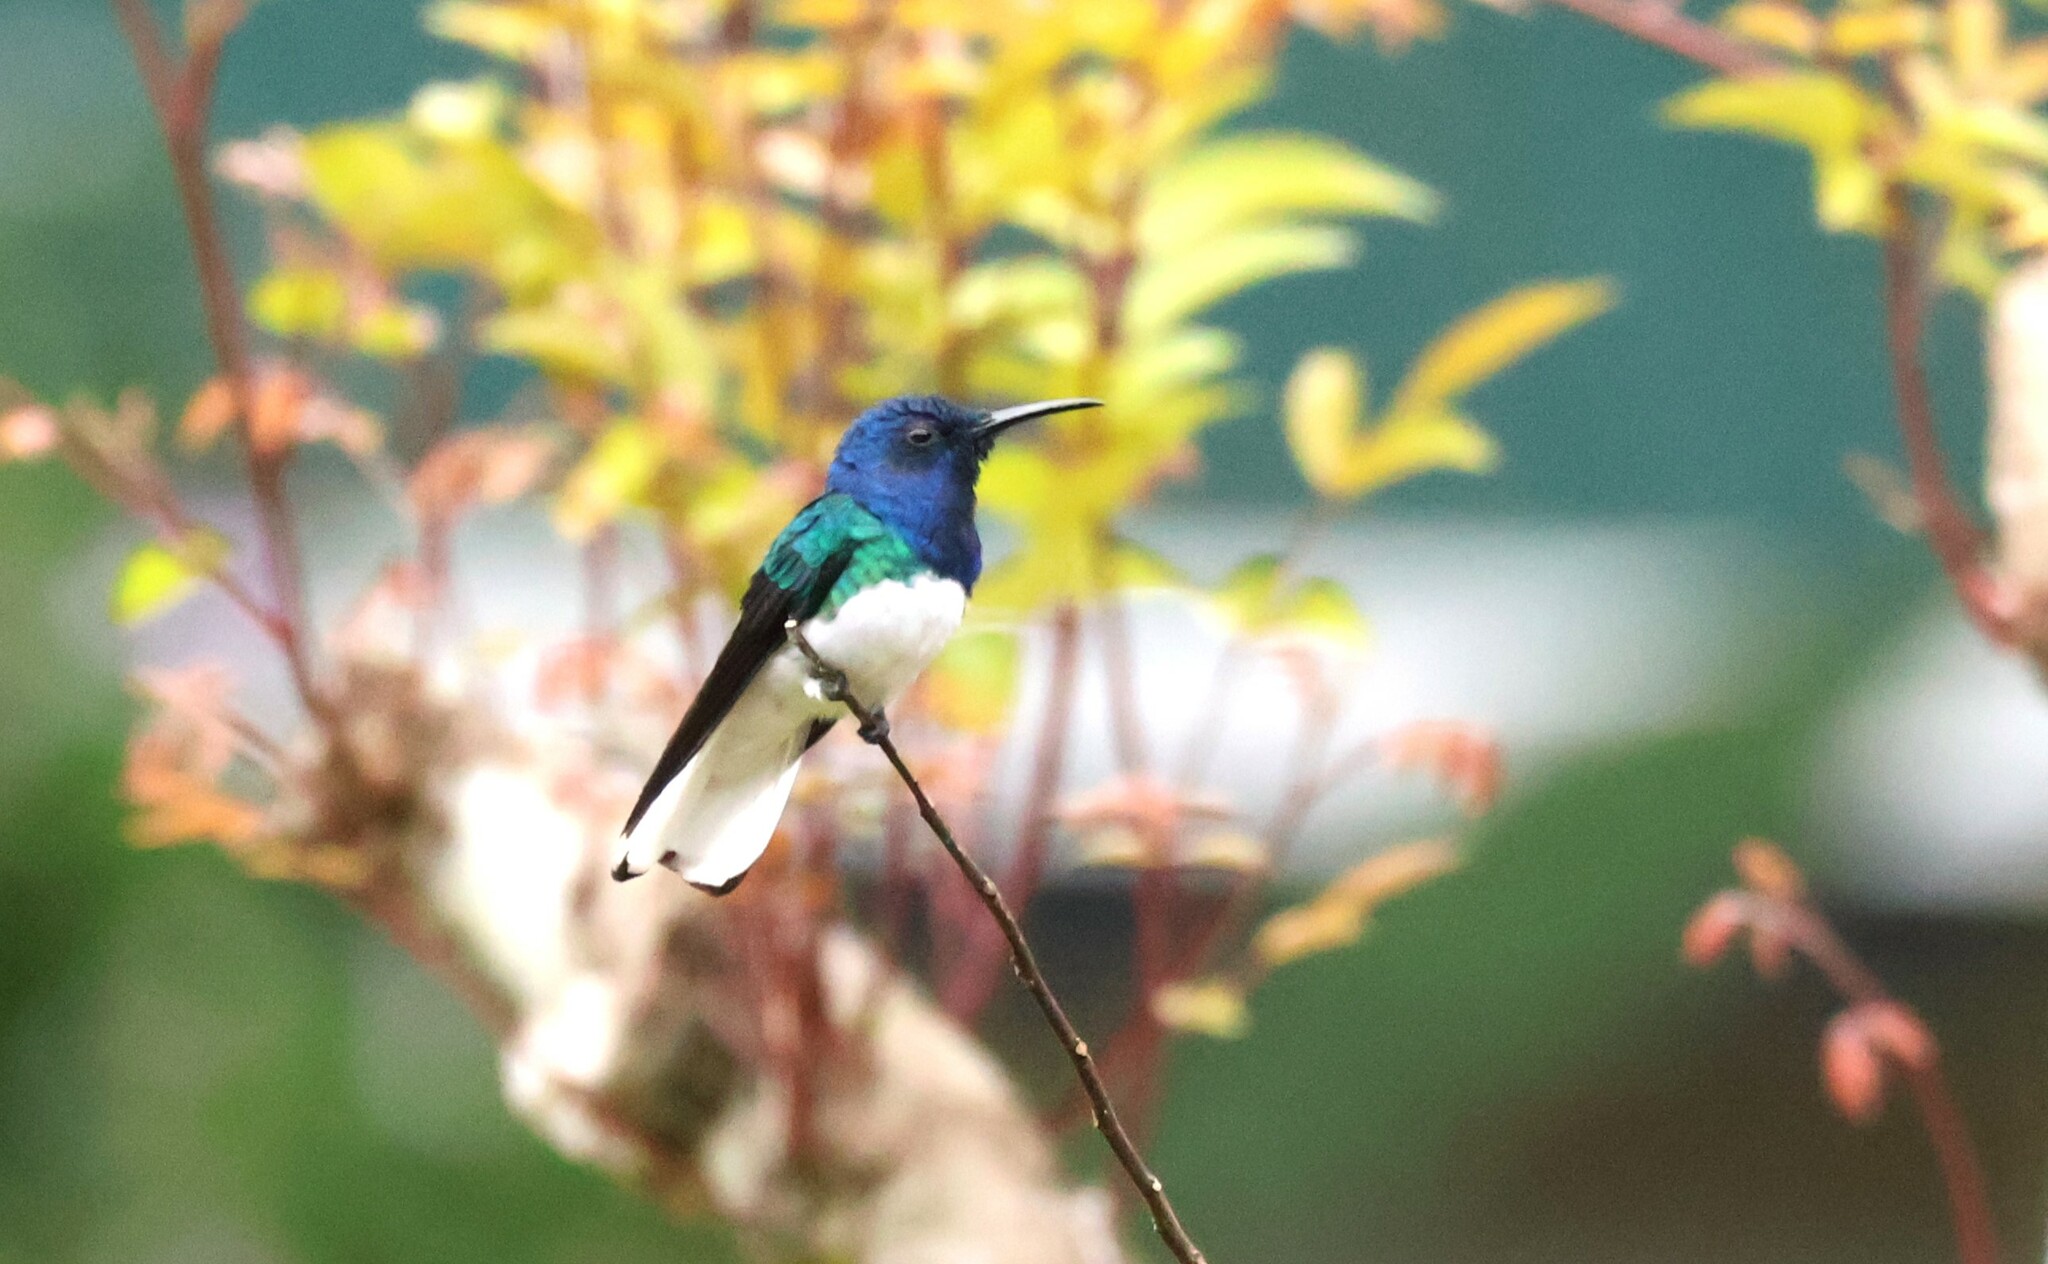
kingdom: Animalia
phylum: Chordata
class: Aves
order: Apodiformes
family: Trochilidae
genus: Florisuga
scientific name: Florisuga mellivora
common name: White-necked jacobin
